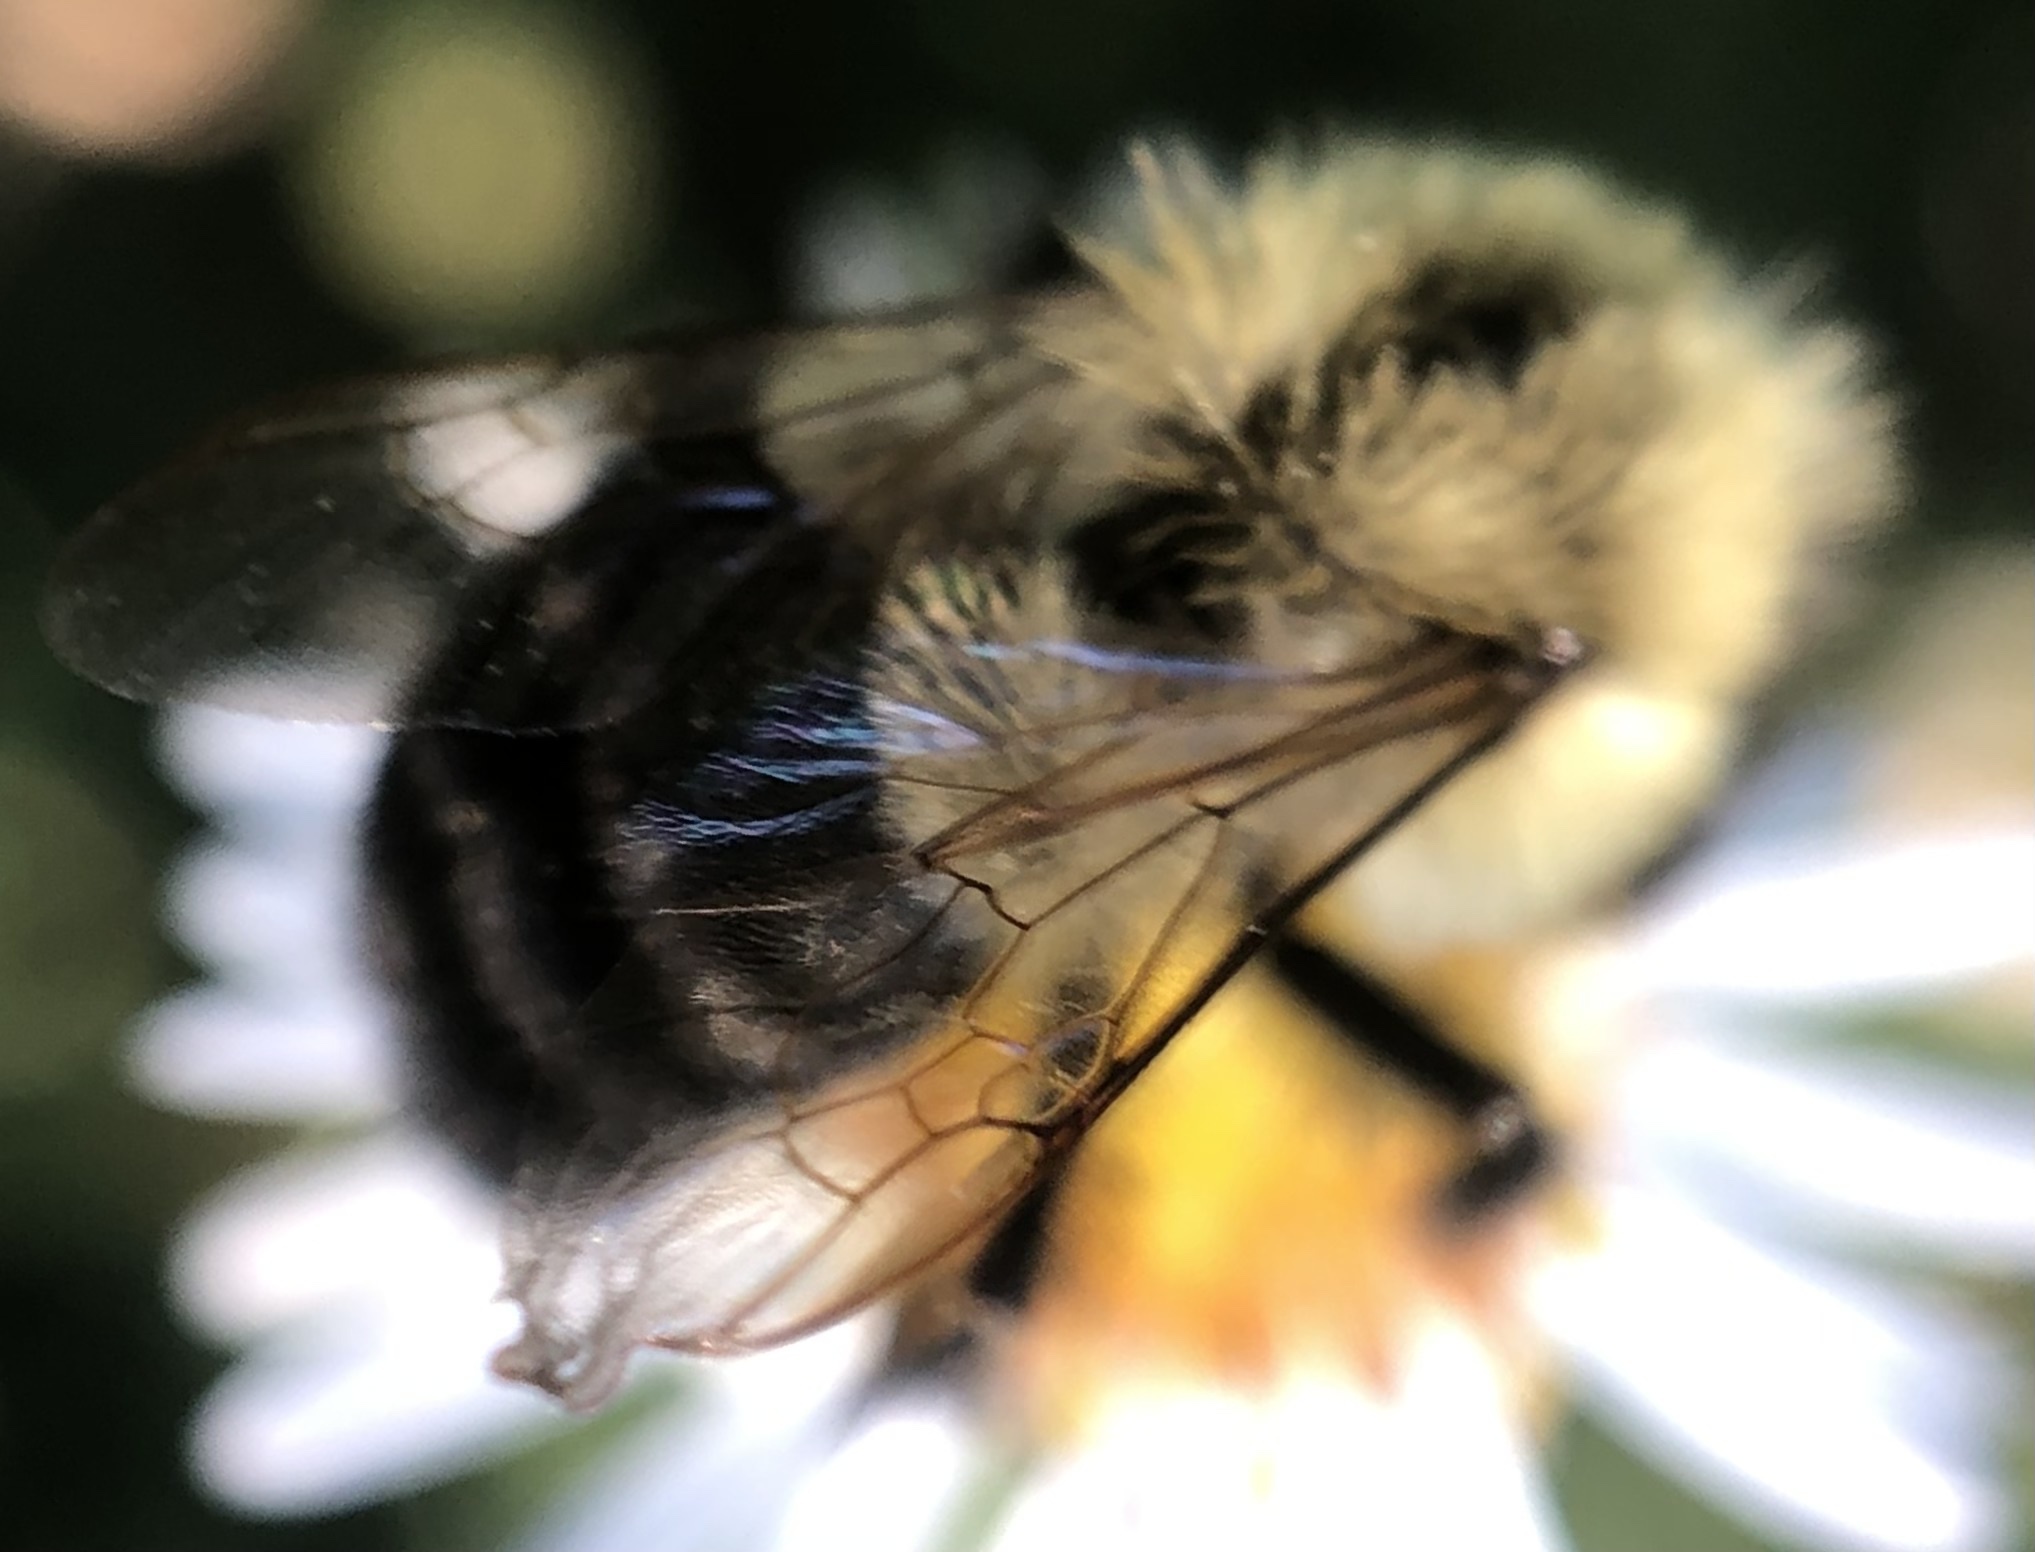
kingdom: Animalia
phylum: Arthropoda
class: Insecta
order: Hymenoptera
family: Apidae
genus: Bombus
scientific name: Bombus impatiens
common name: Common eastern bumble bee
